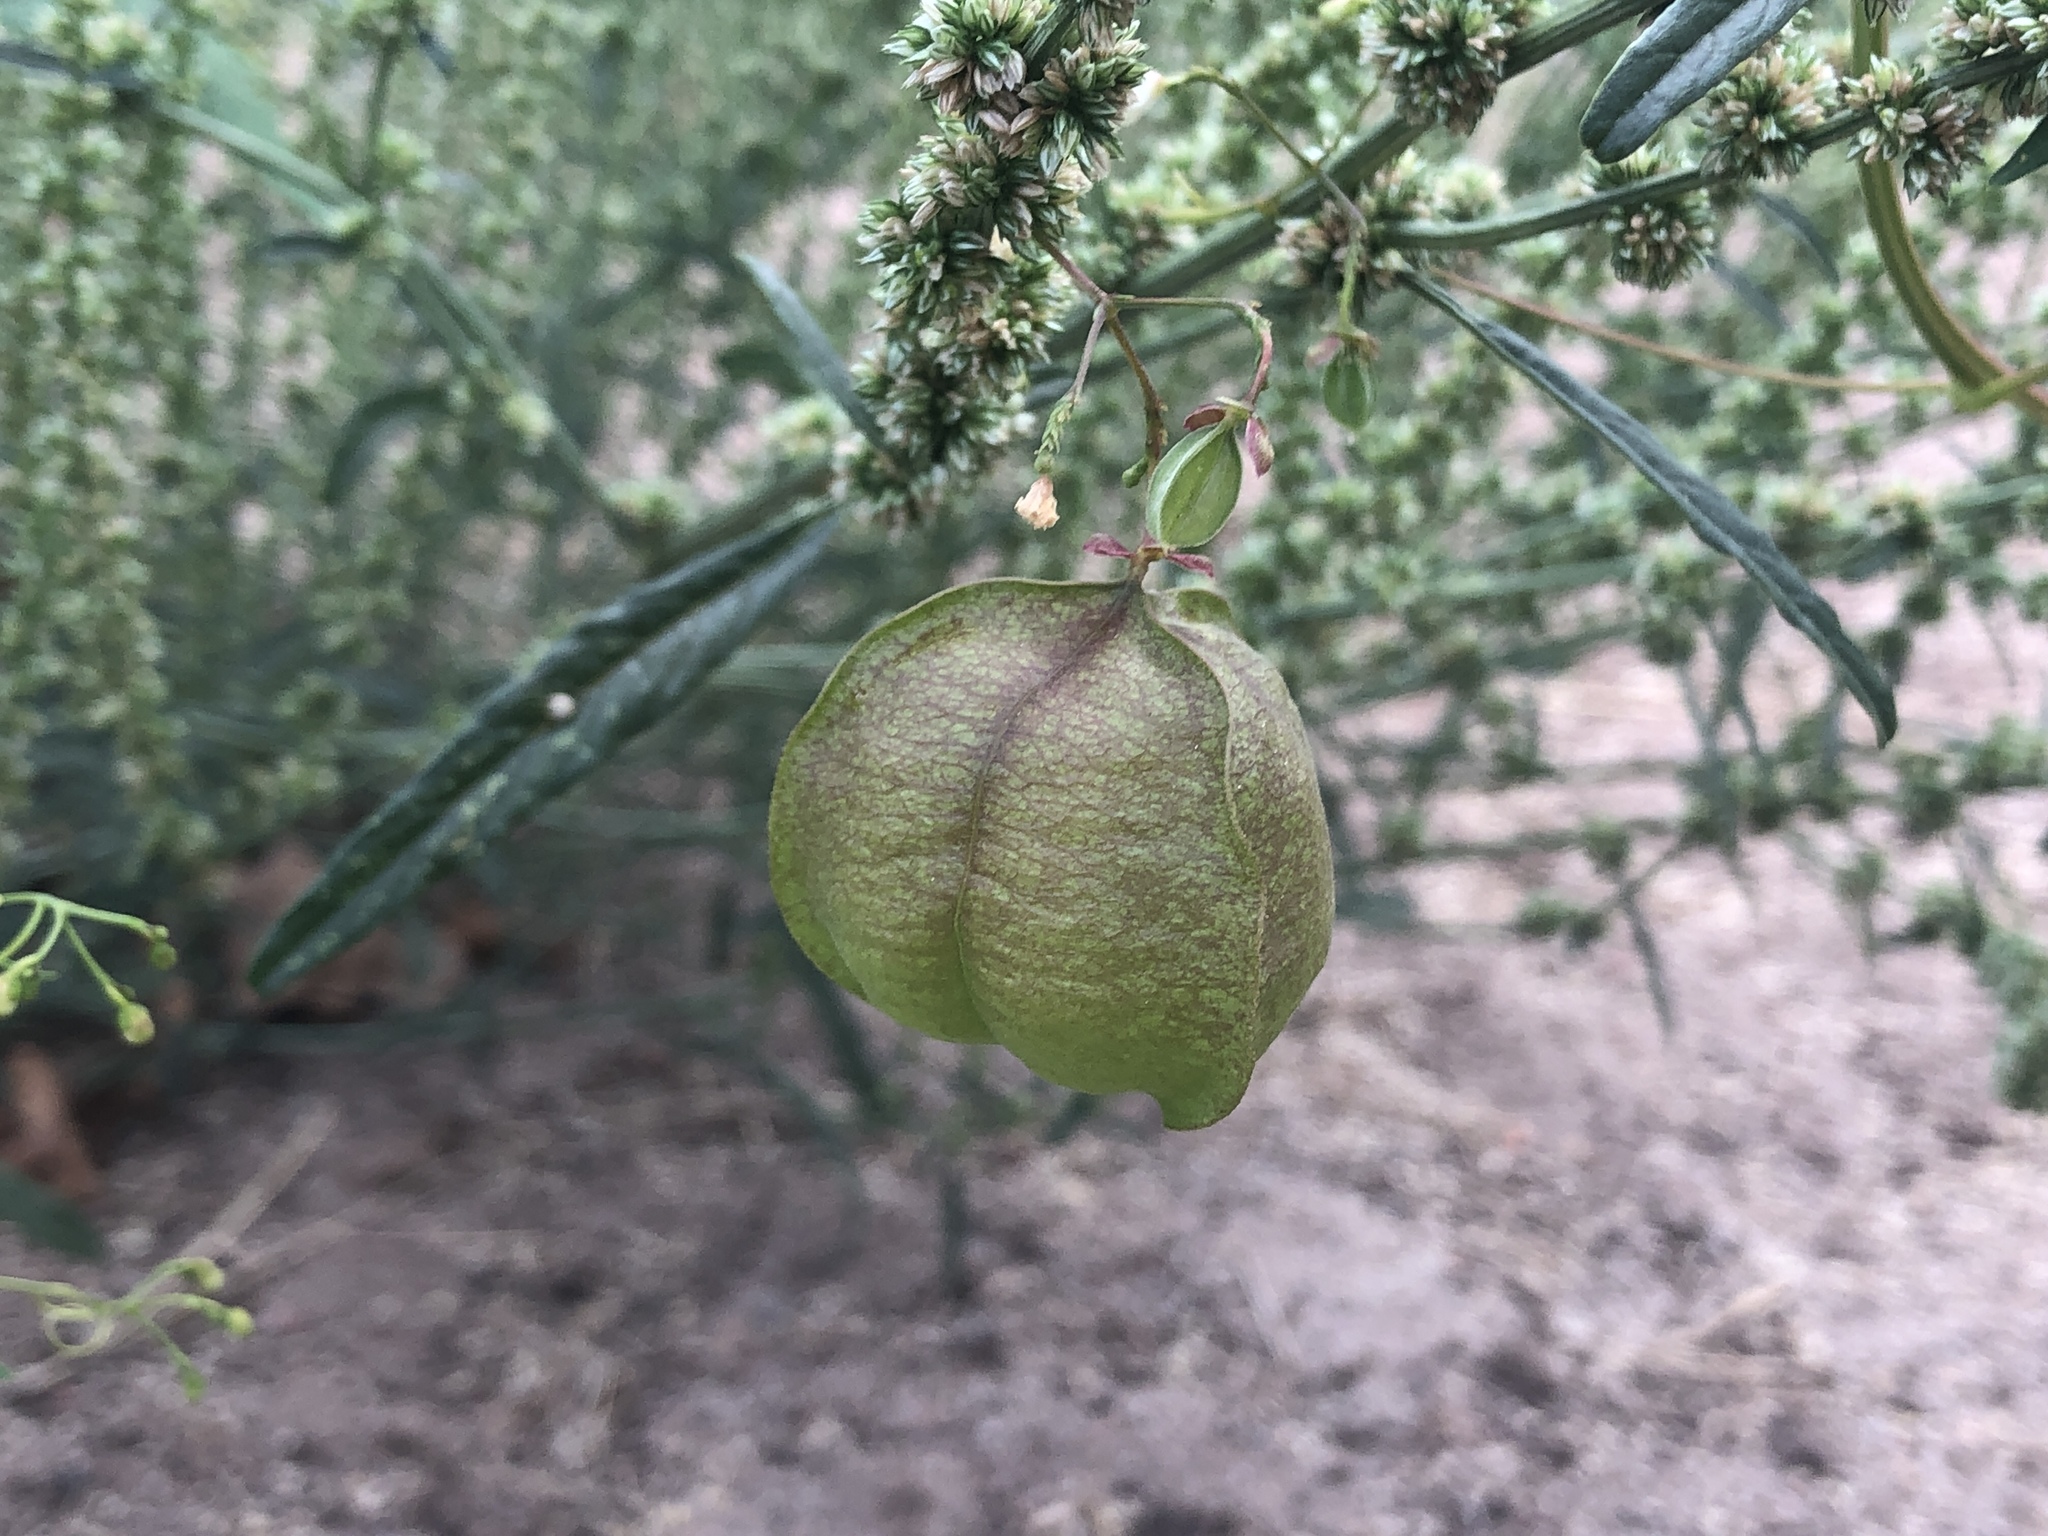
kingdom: Plantae
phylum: Tracheophyta
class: Magnoliopsida
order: Sapindales
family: Sapindaceae
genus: Cardiospermum
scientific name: Cardiospermum halicacabum
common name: Balloon vine
